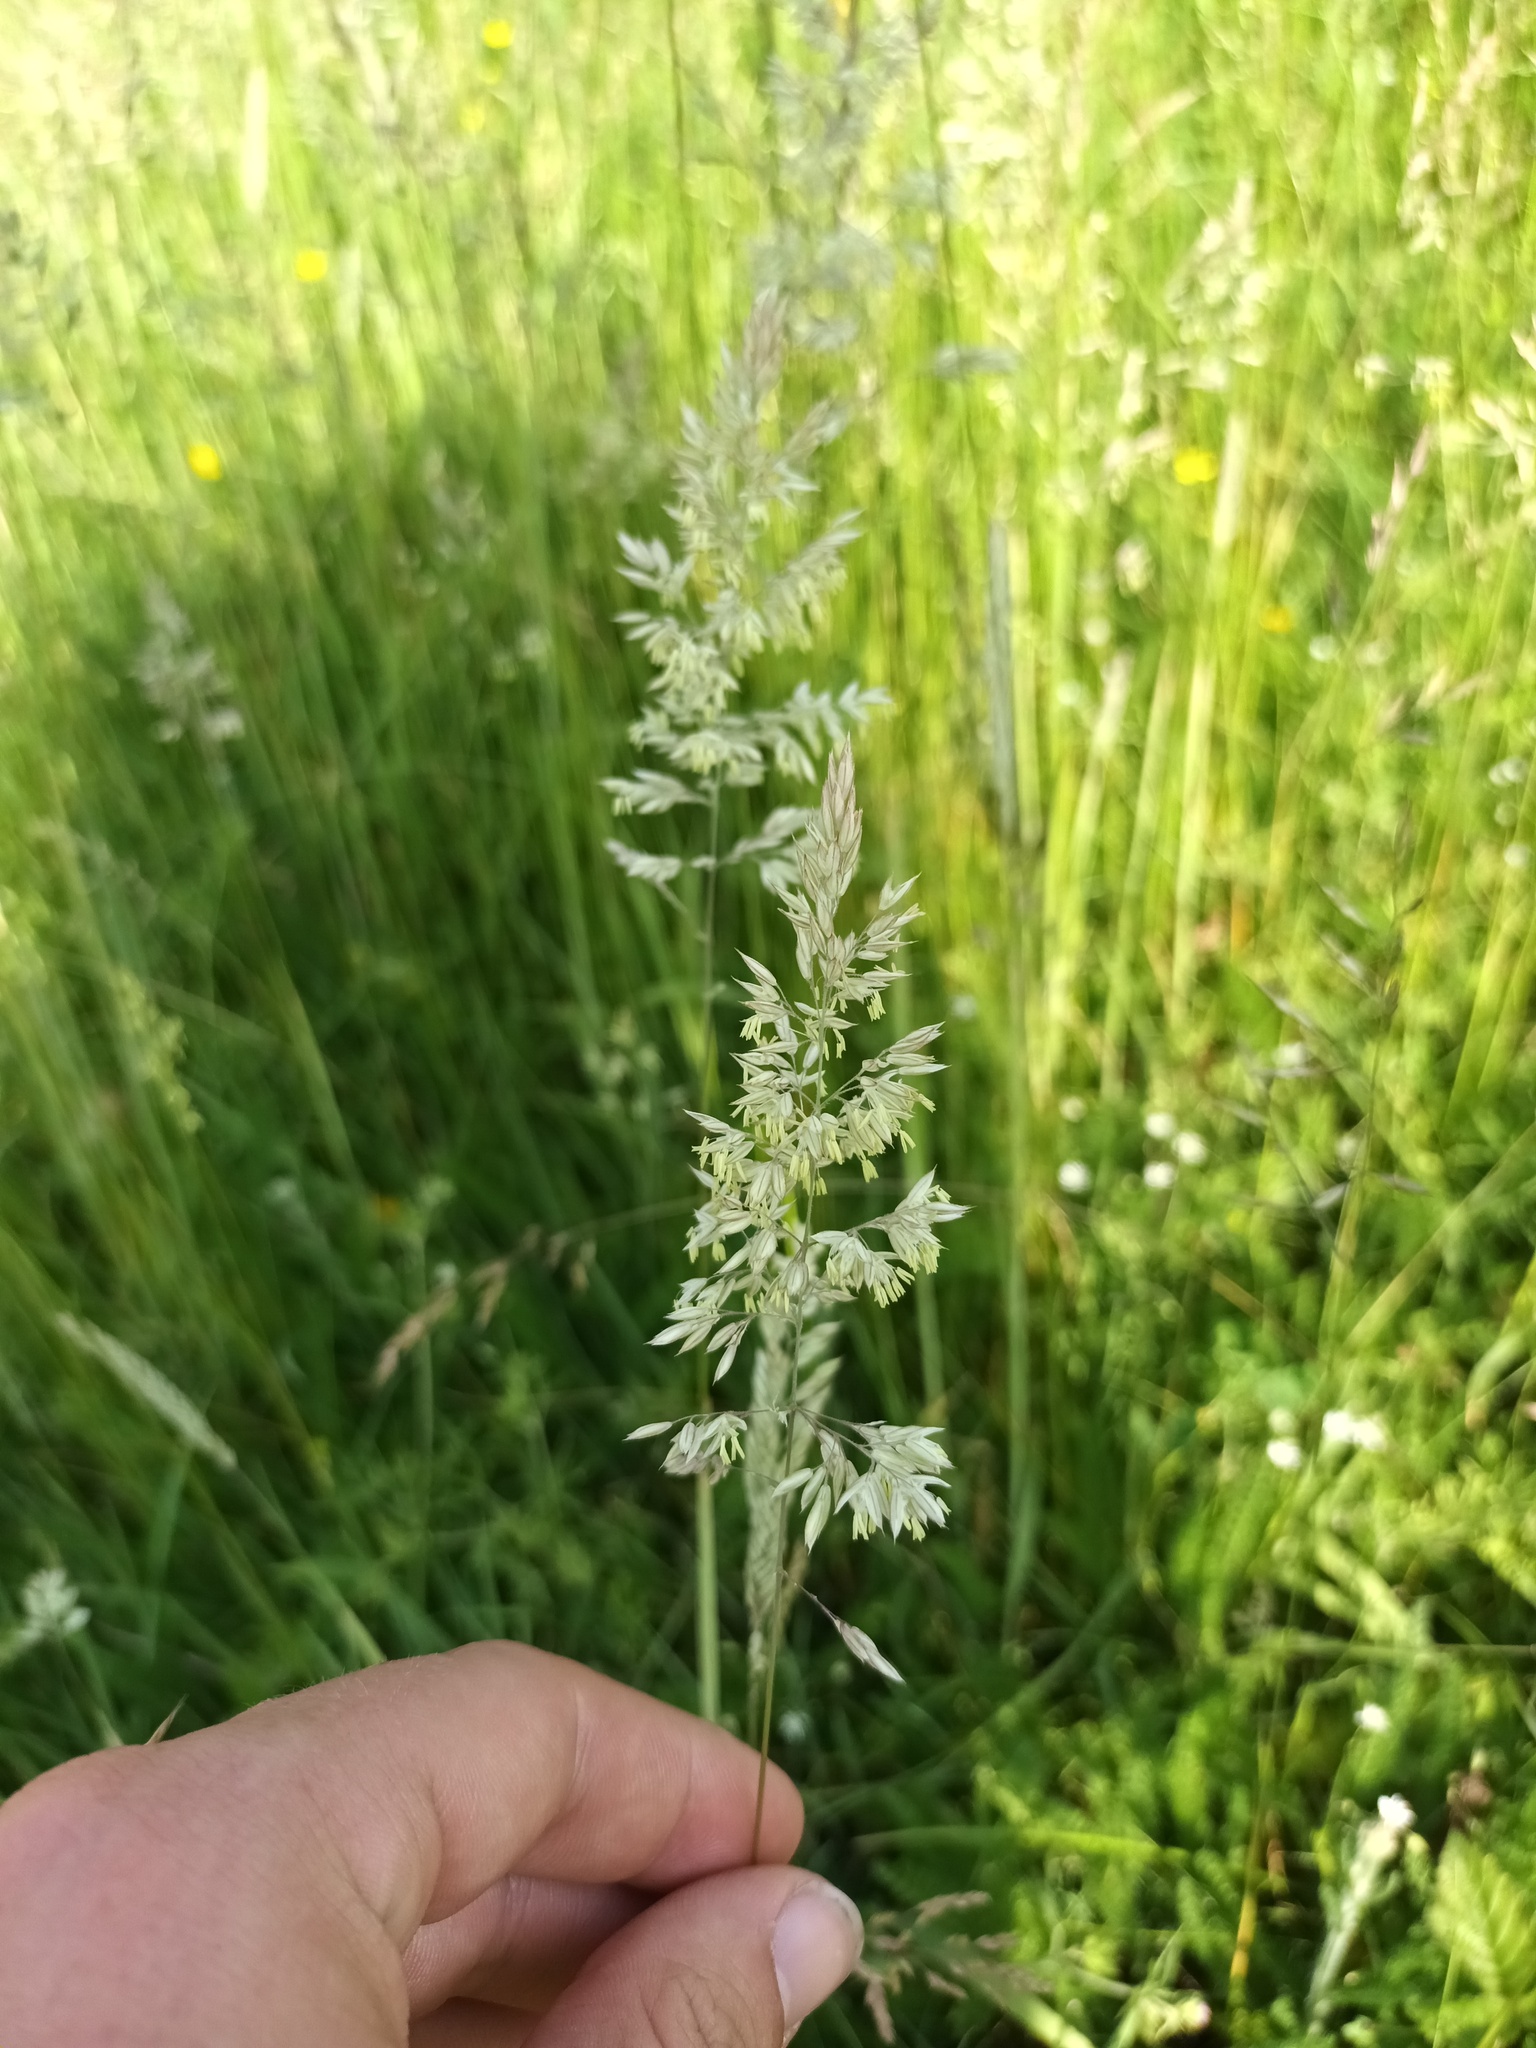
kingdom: Plantae
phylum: Tracheophyta
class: Liliopsida
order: Poales
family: Poaceae
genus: Holcus
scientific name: Holcus lanatus
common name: Yorkshire-fog
